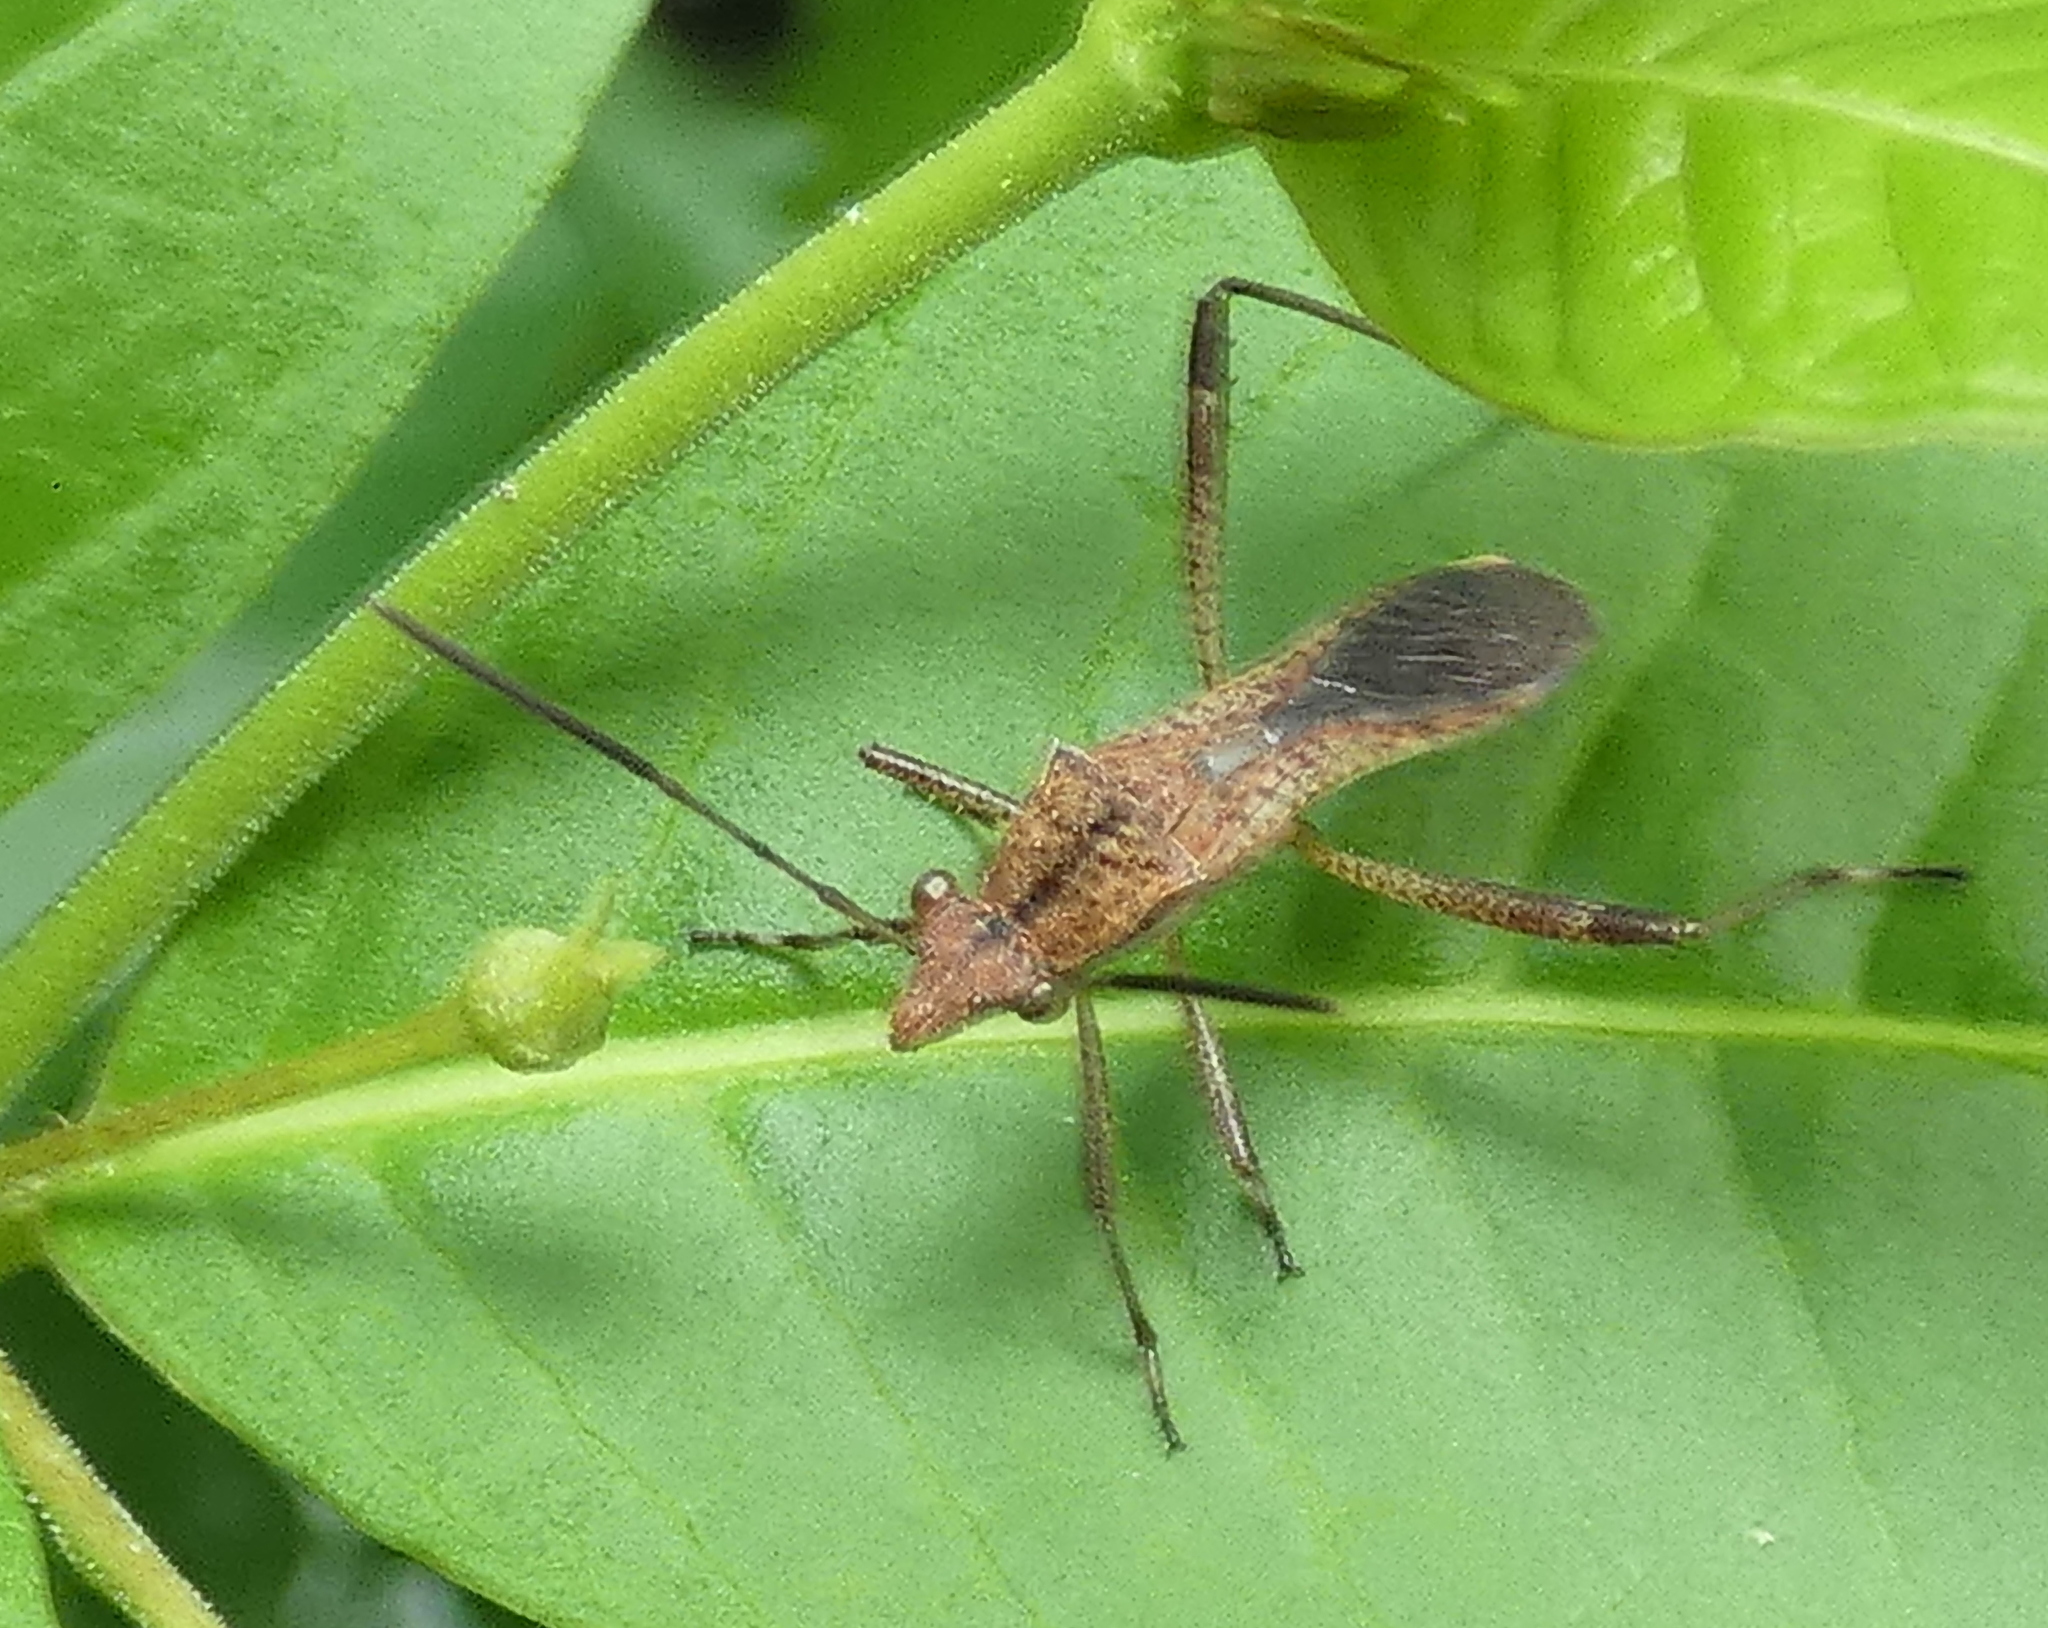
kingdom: Animalia
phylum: Arthropoda
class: Insecta
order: Hemiptera
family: Alydidae
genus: Neomegalotomus
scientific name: Neomegalotomus parvus
